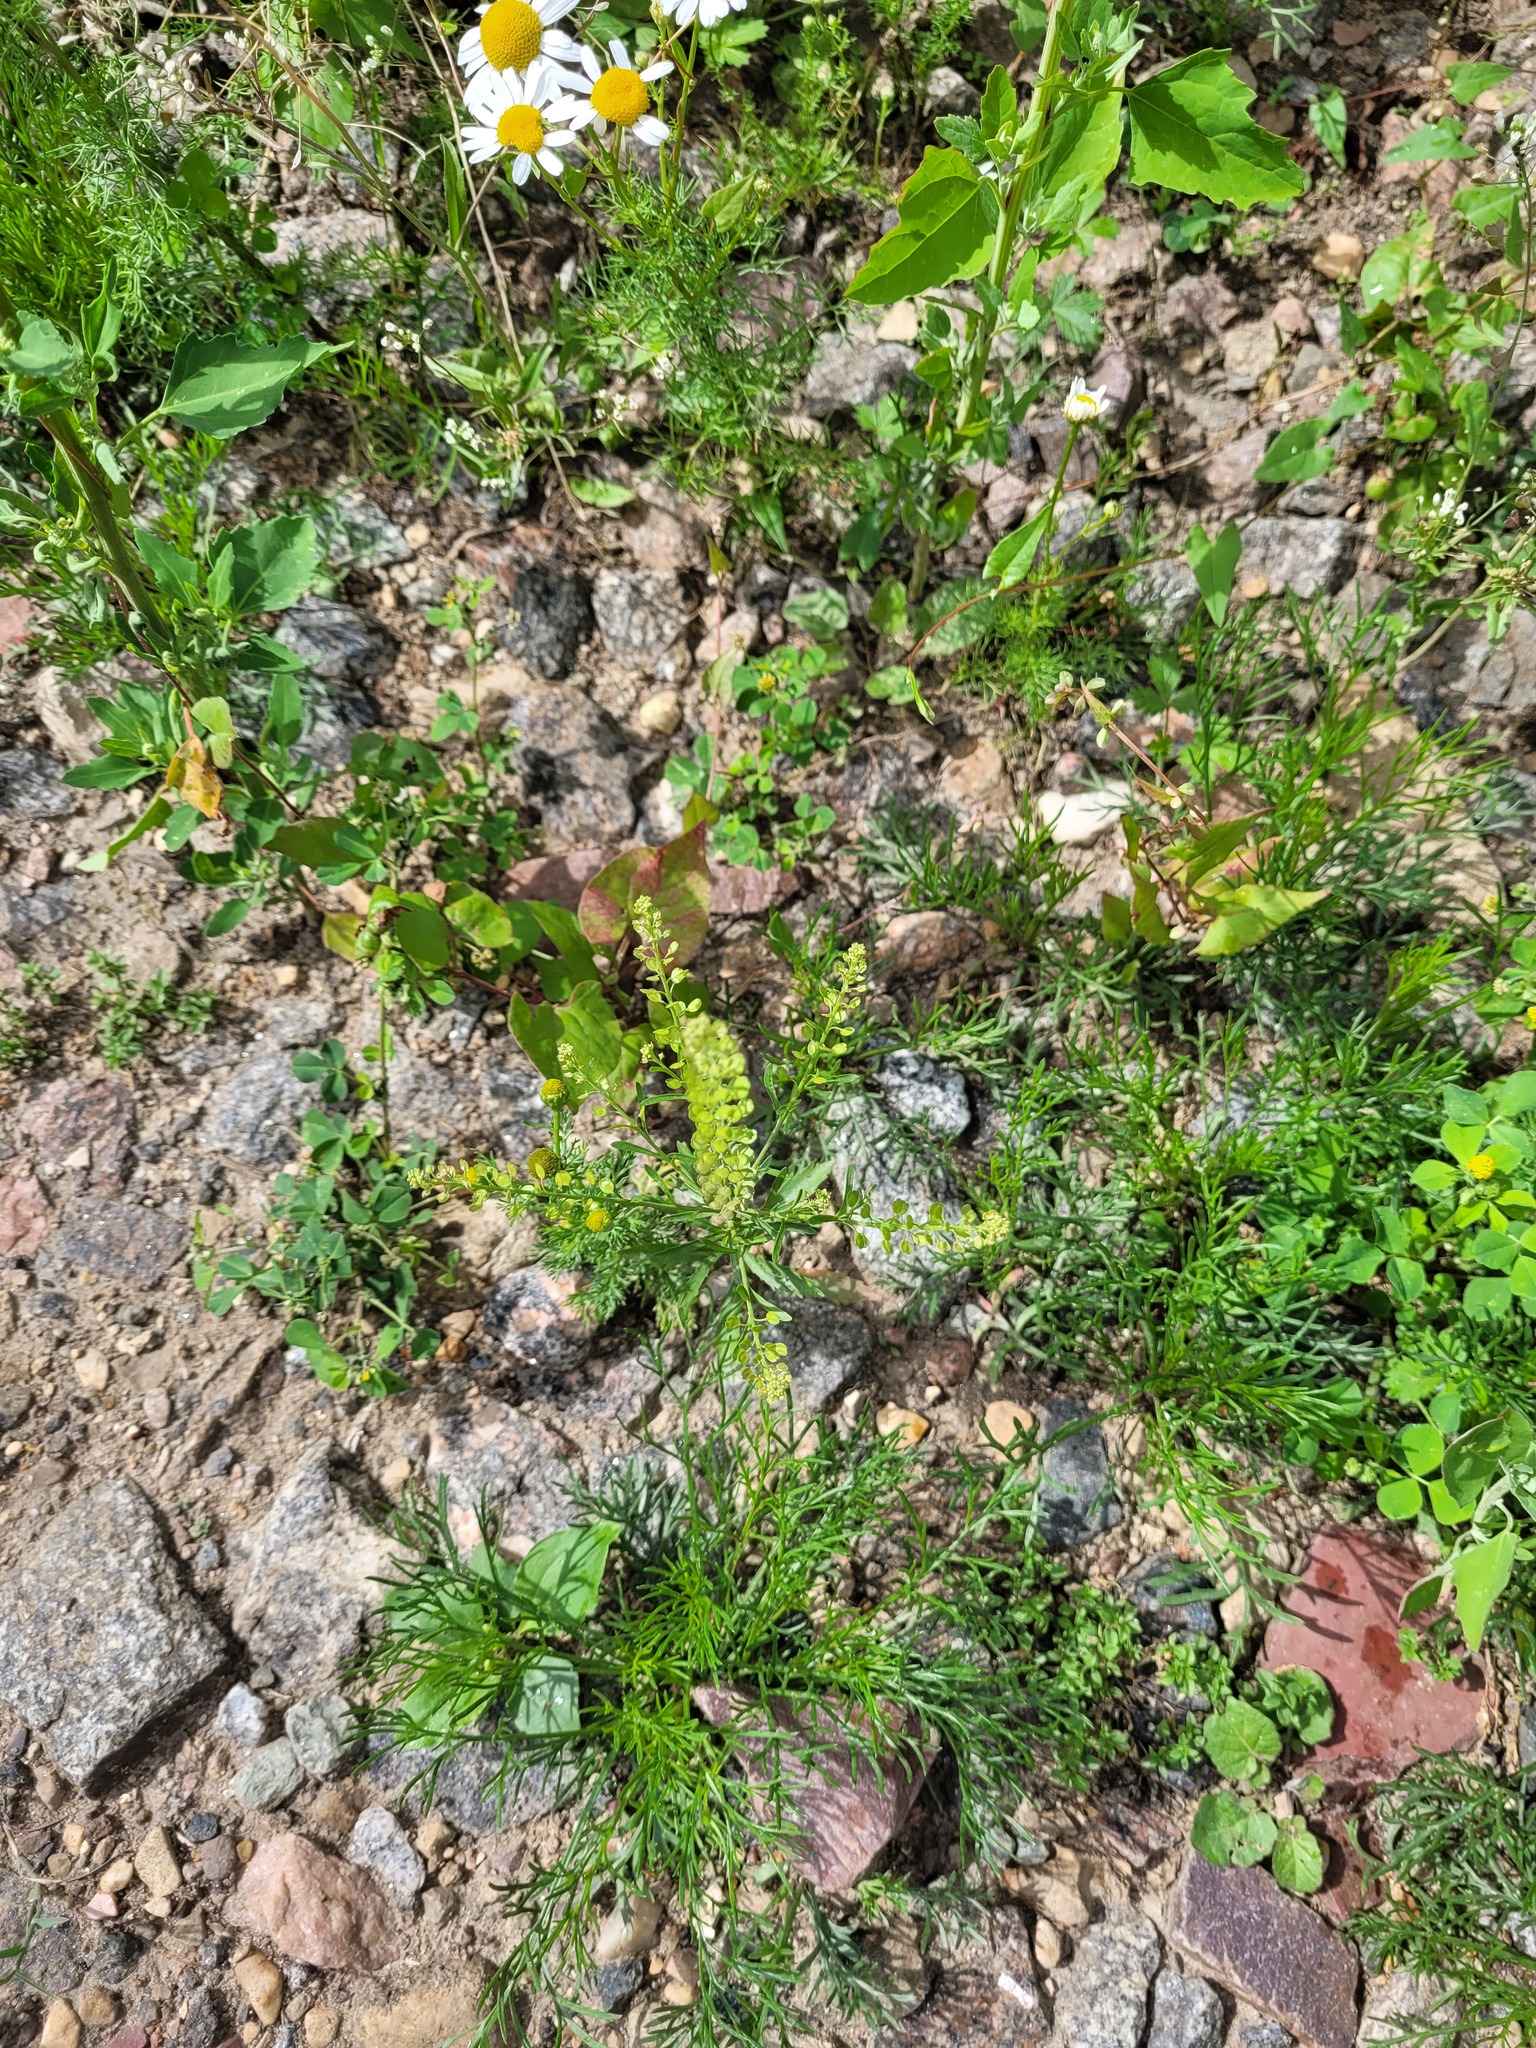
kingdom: Plantae
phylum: Tracheophyta
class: Magnoliopsida
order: Brassicales
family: Brassicaceae
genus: Lepidium
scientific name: Lepidium densiflorum
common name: Miner's pepperwort
